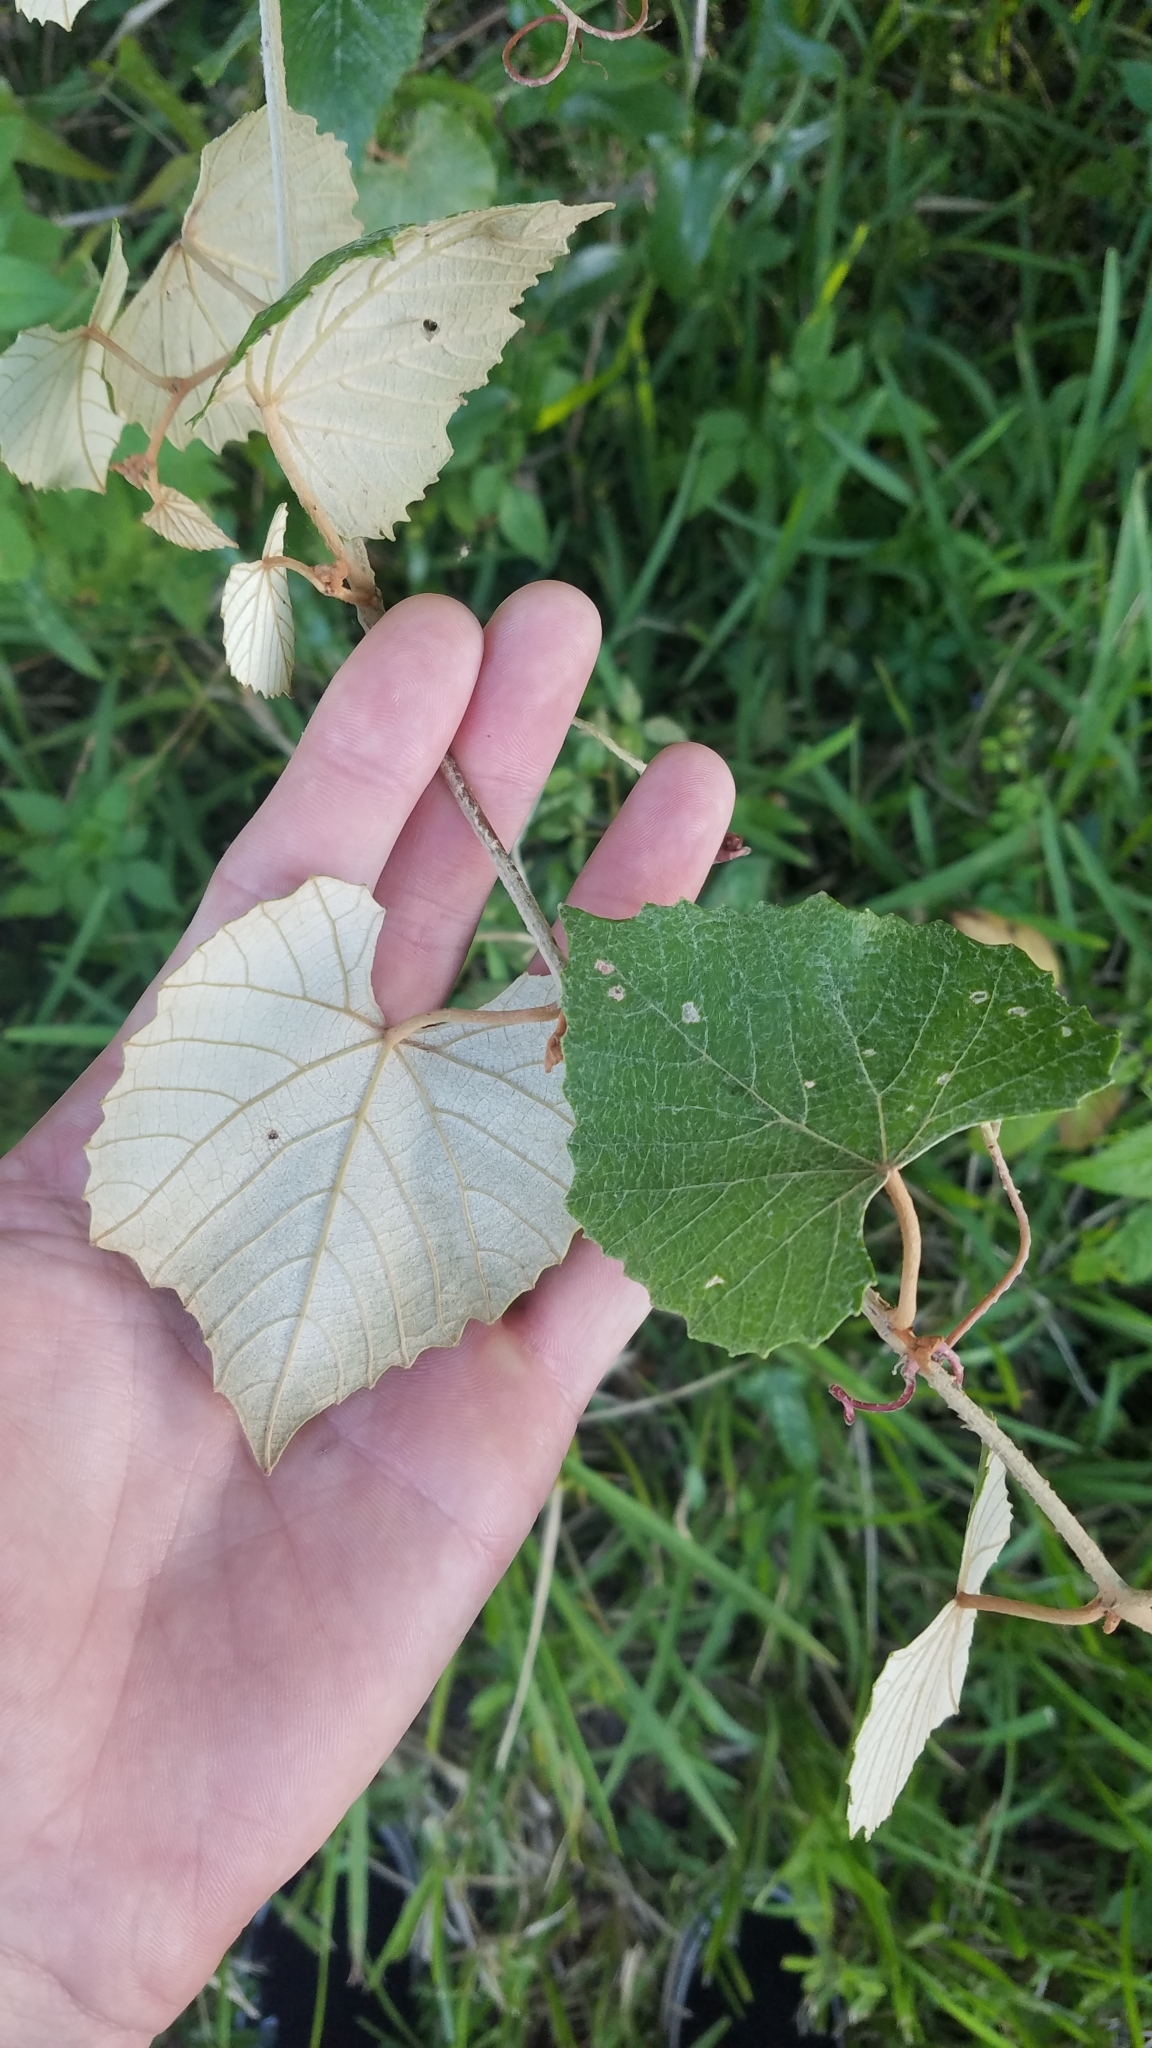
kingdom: Plantae
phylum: Tracheophyta
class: Magnoliopsida
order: Vitales
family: Vitaceae
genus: Vitis
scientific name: Vitis shuttleworthii
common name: Caloosa grape
